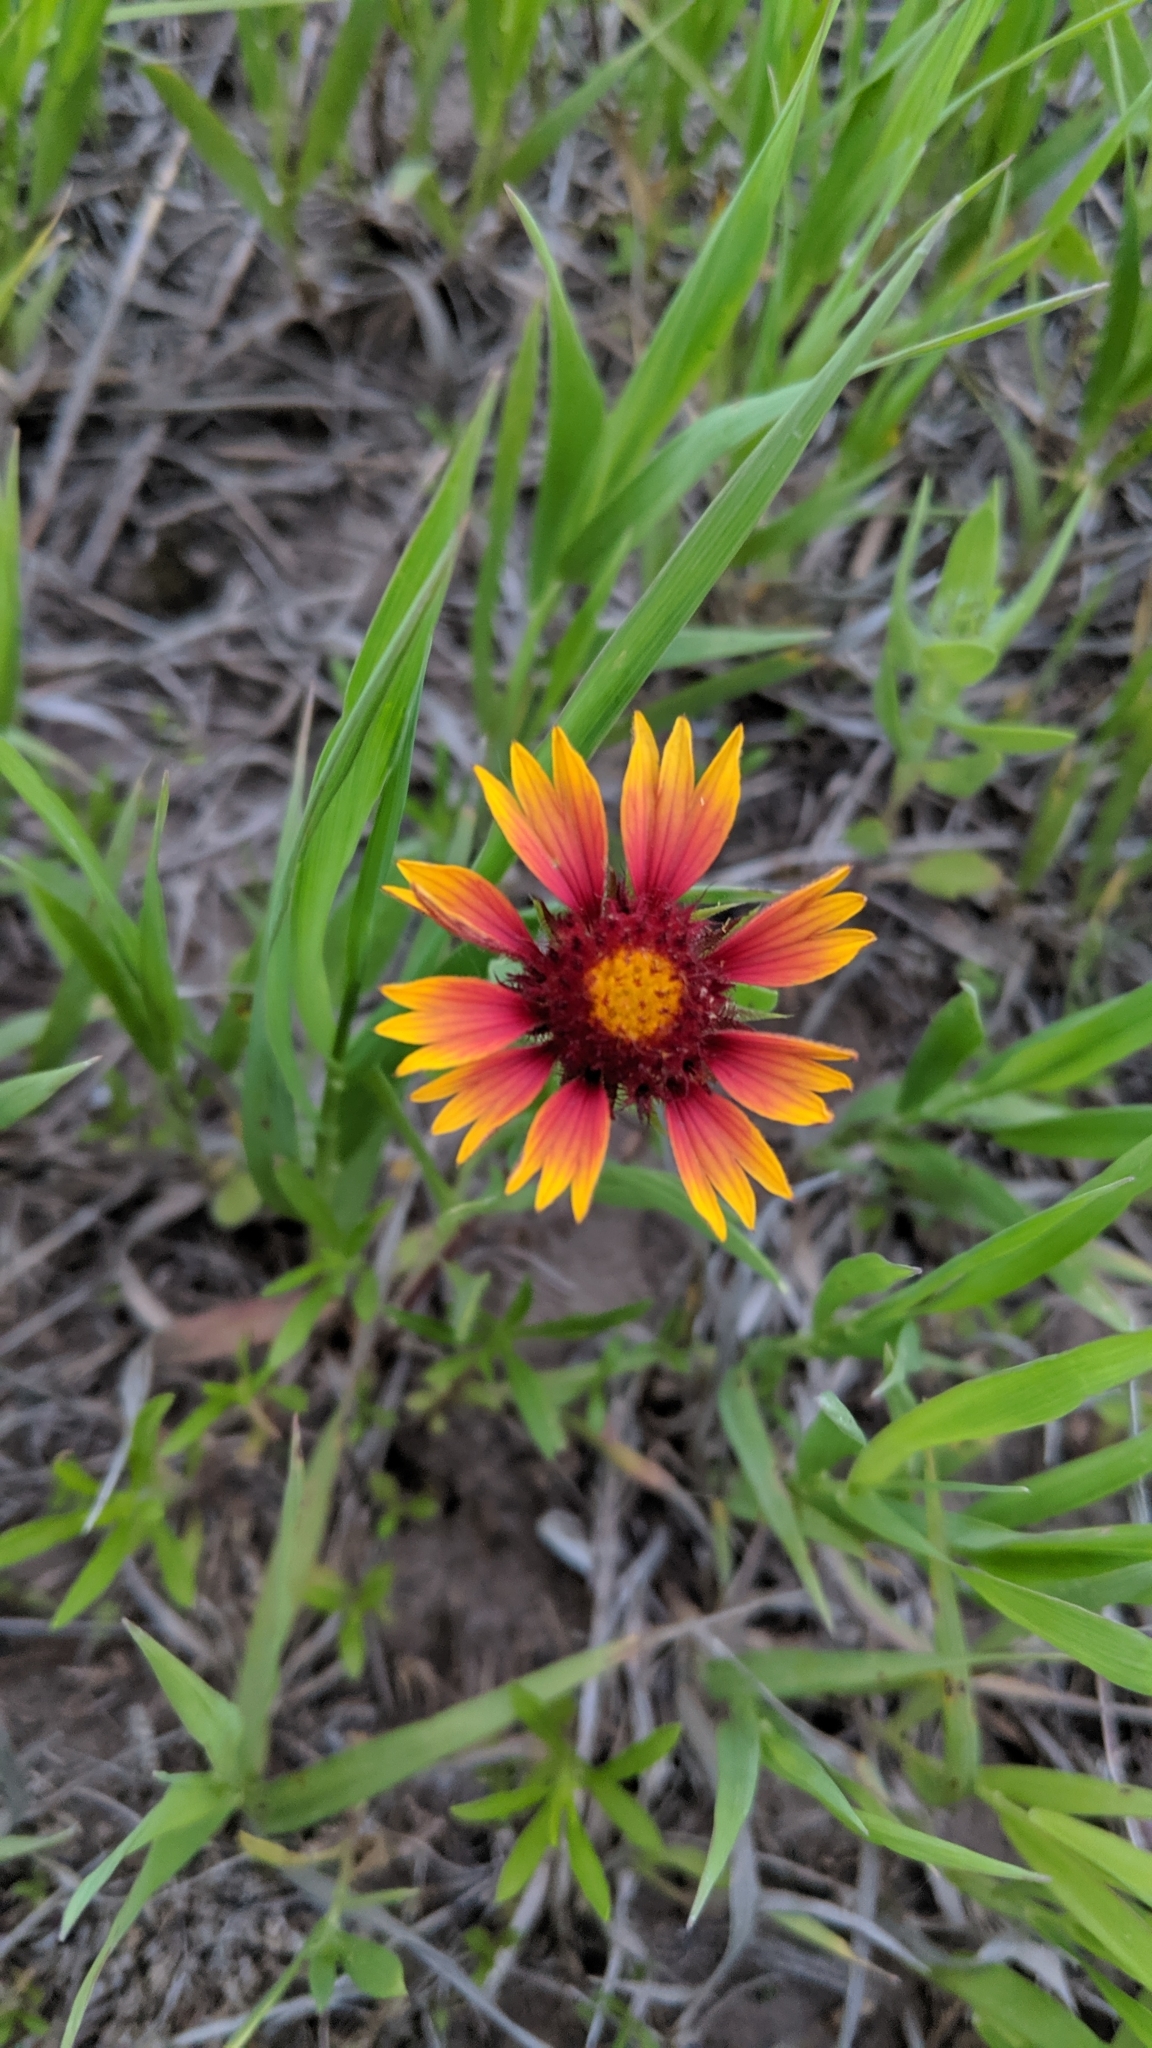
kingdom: Plantae
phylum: Tracheophyta
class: Magnoliopsida
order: Asterales
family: Asteraceae
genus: Gaillardia
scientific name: Gaillardia pulchella
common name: Firewheel
